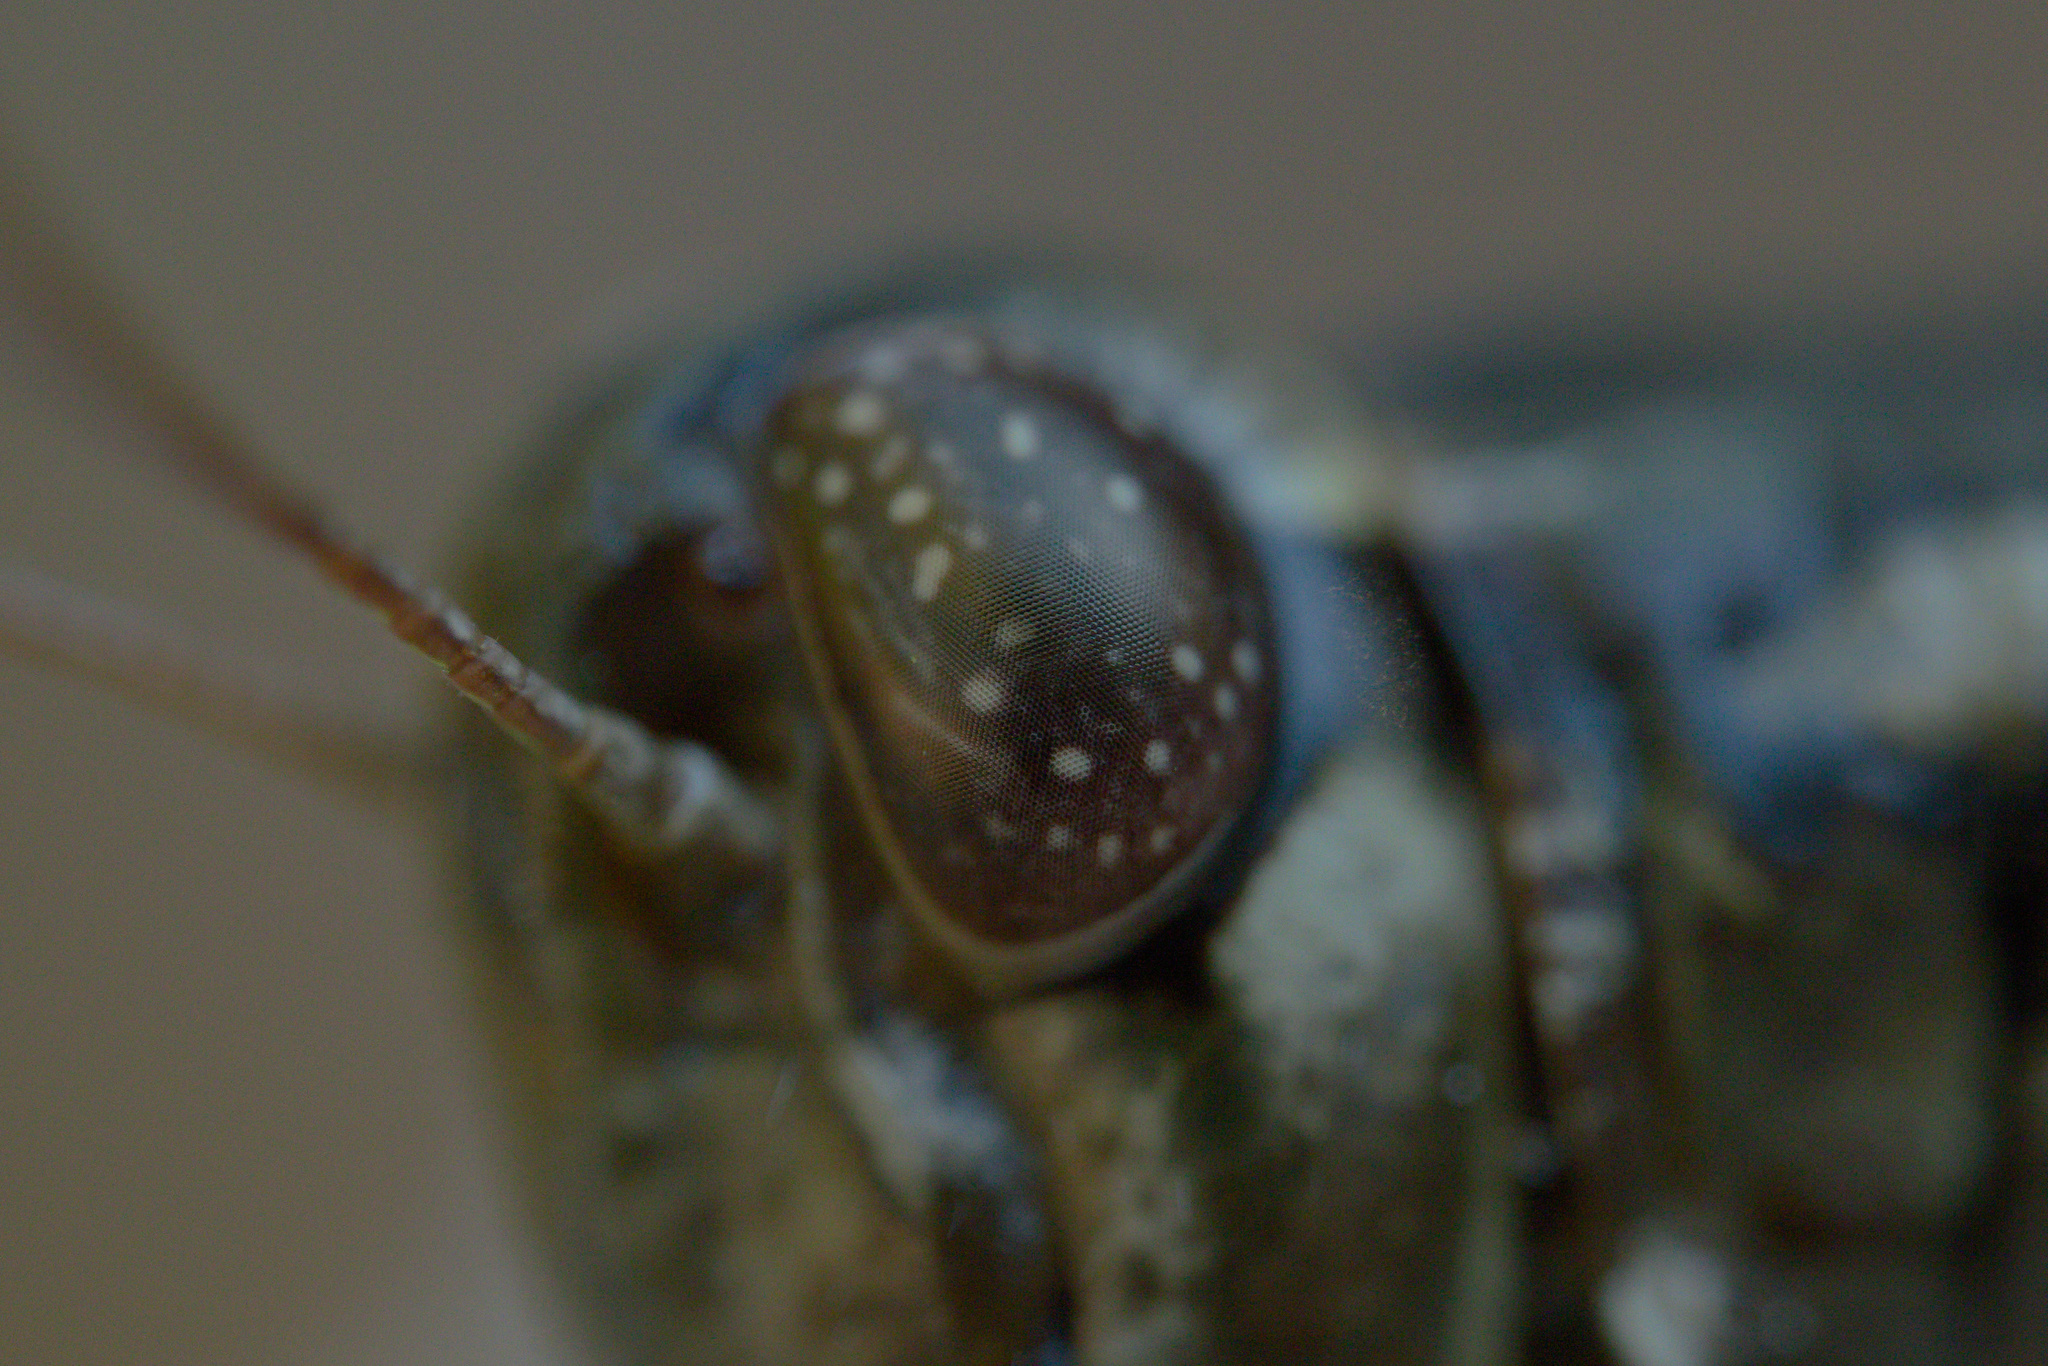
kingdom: Animalia
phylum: Arthropoda
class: Insecta
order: Orthoptera
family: Acrididae
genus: Melanoplus
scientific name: Melanoplus macclungi
